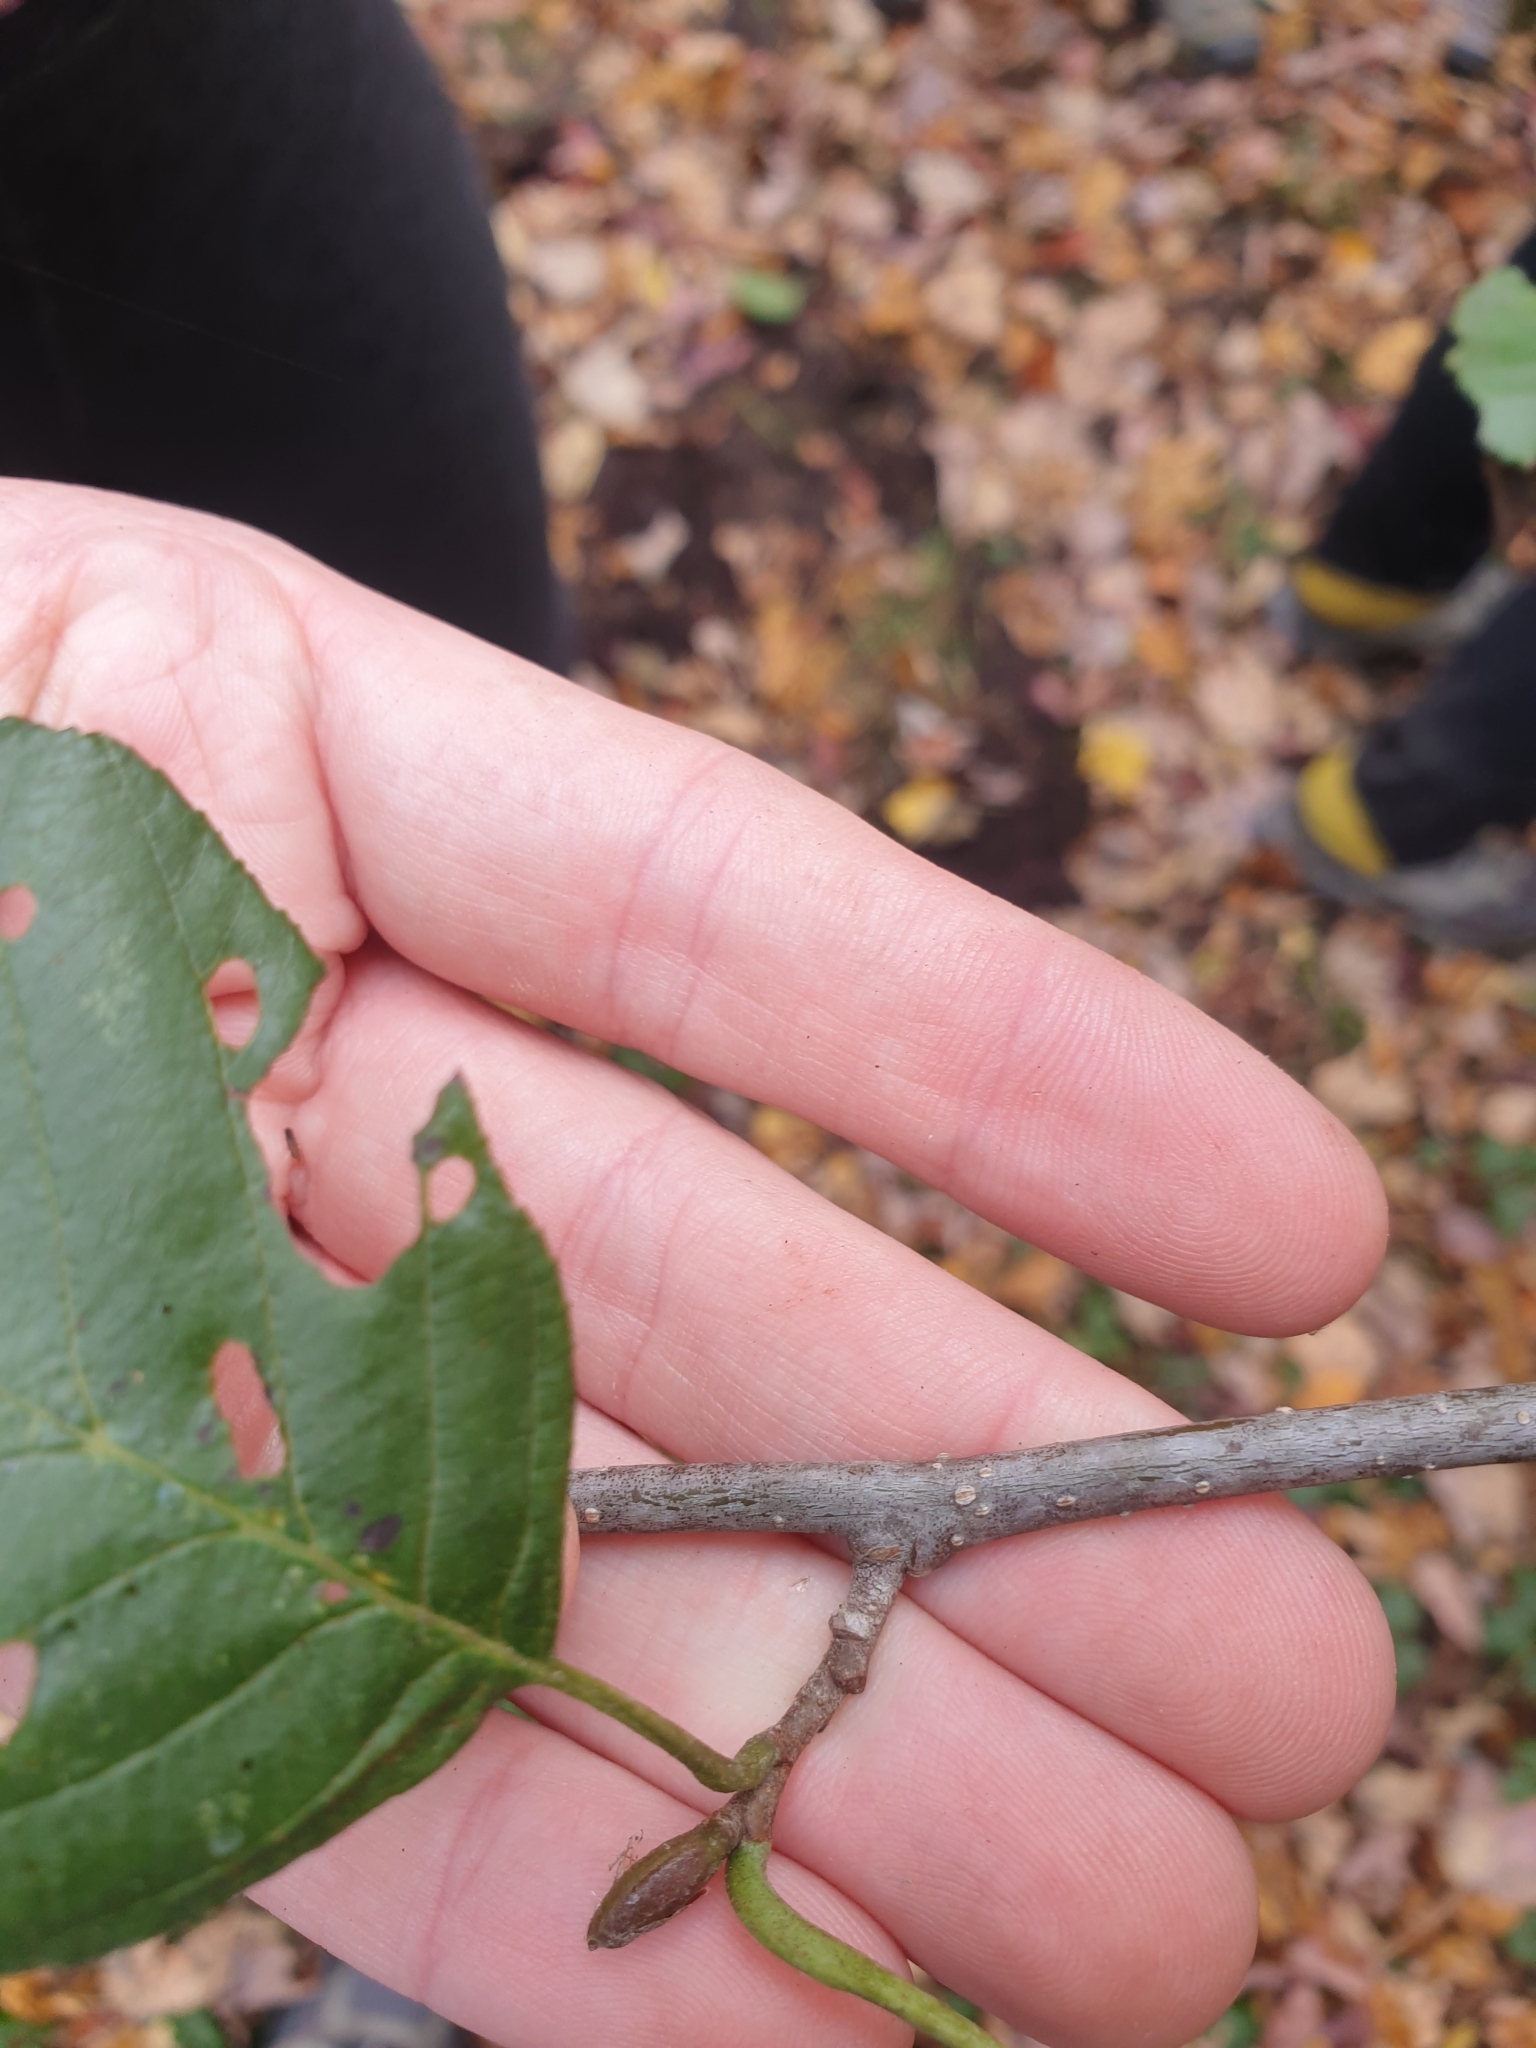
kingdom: Plantae
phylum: Tracheophyta
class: Magnoliopsida
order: Fagales
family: Betulaceae
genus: Alnus
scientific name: Alnus incana
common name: Grey alder
